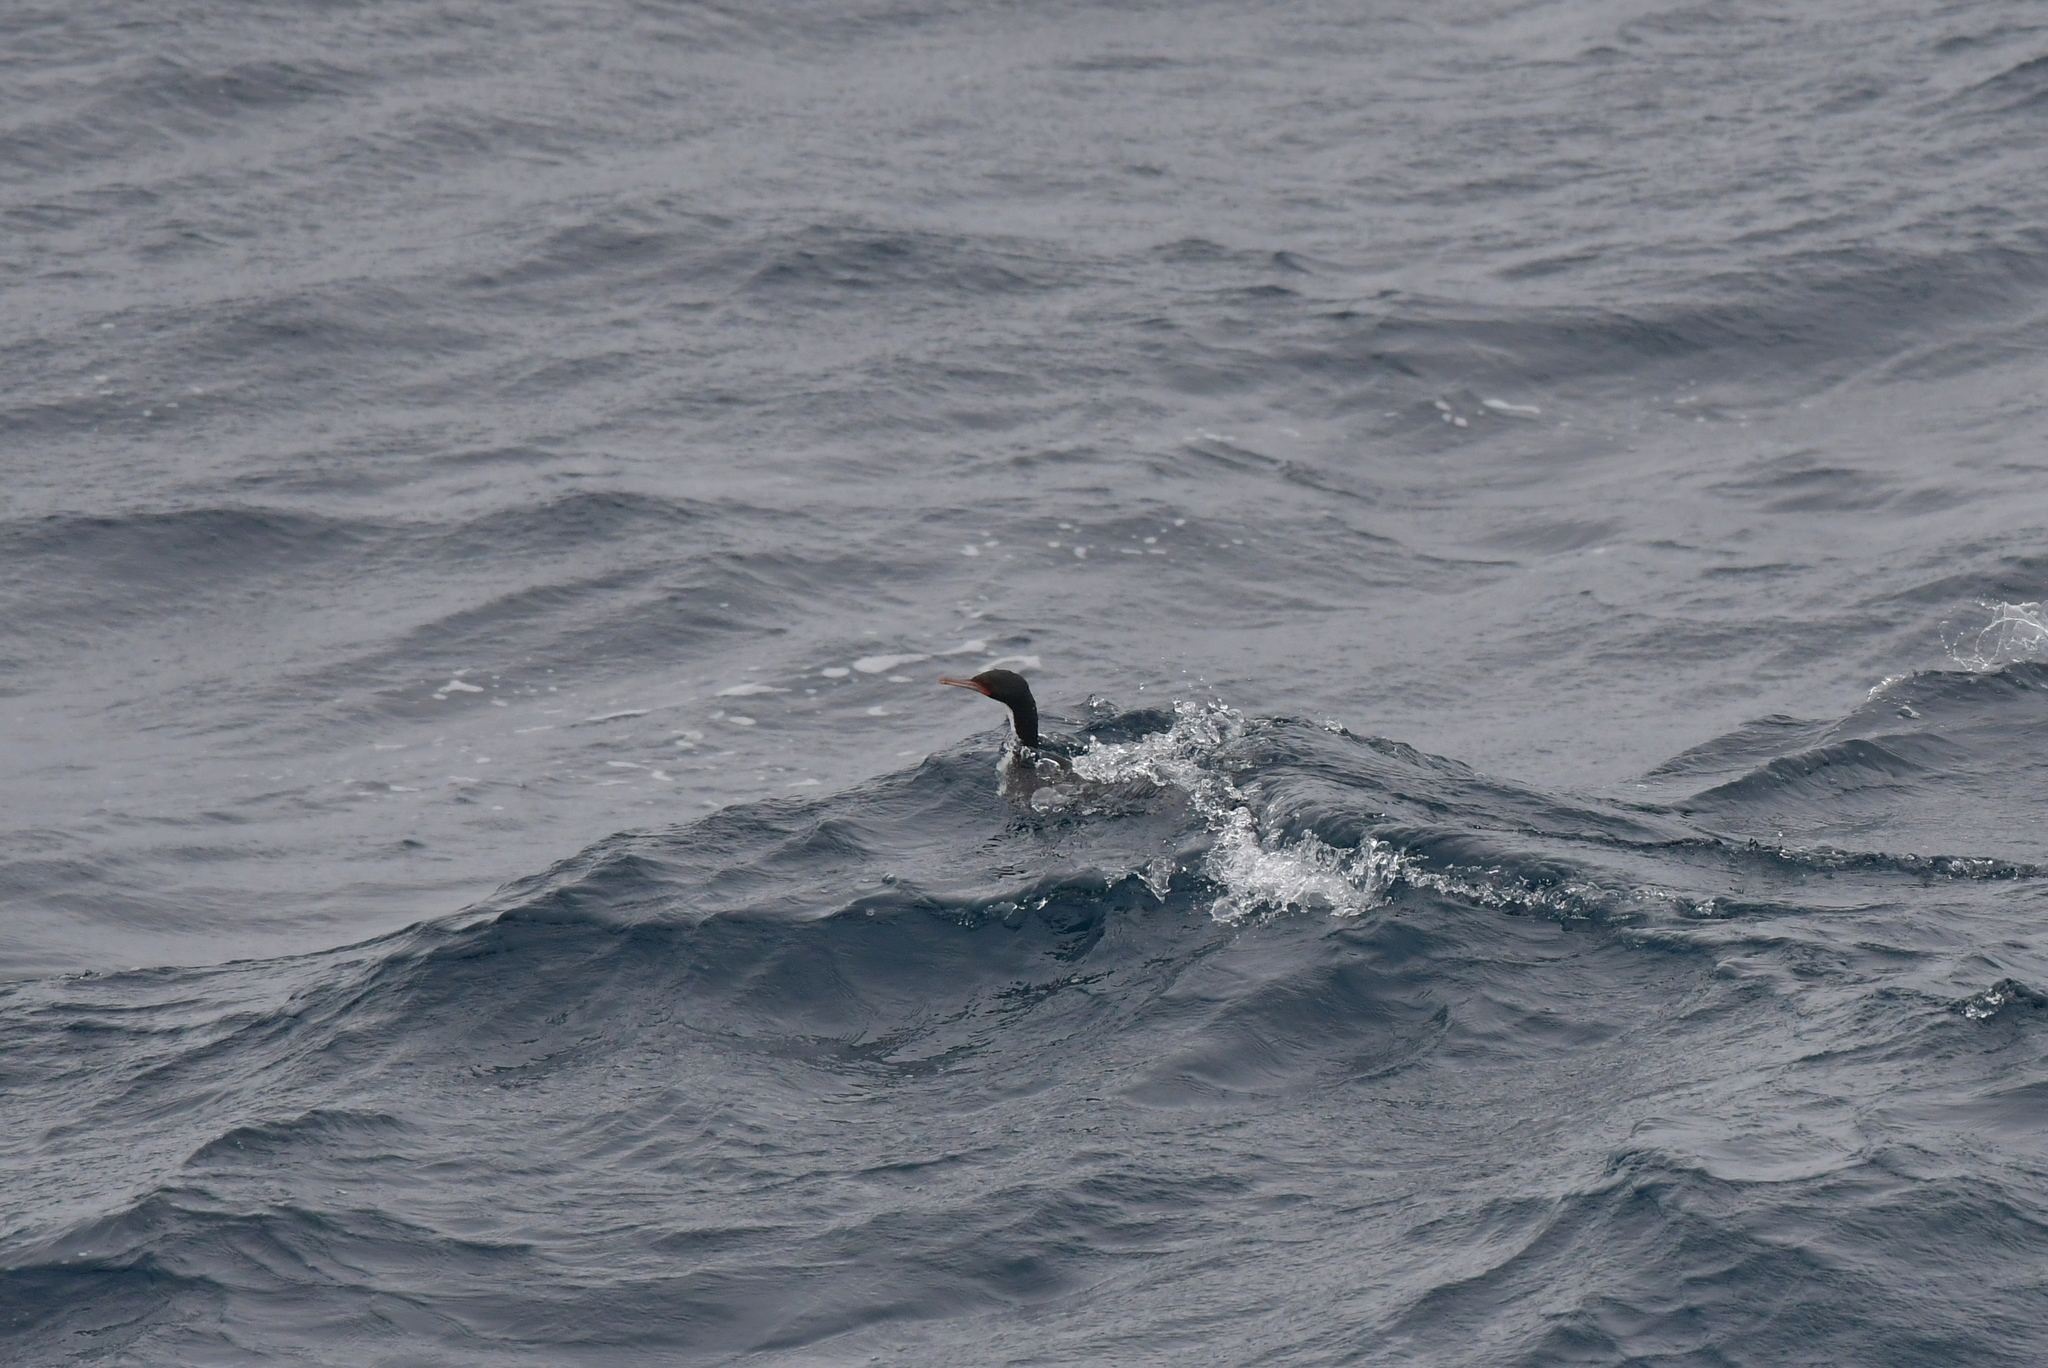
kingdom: Animalia
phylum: Chordata
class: Aves
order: Suliformes
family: Phalacrocoracidae
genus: Leucocarbo
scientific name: Leucocarbo ranfurlyi
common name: Bounty shag
